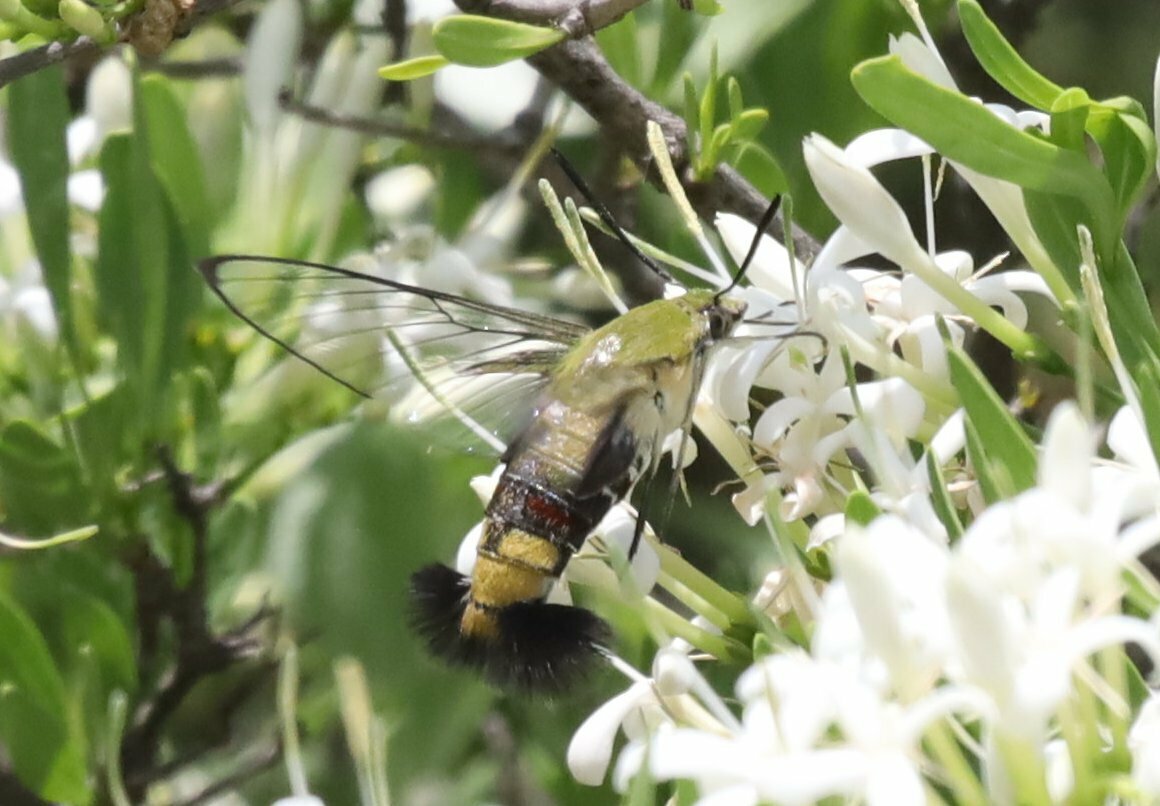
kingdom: Animalia
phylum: Arthropoda
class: Insecta
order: Lepidoptera
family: Sphingidae
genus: Cephonodes
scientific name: Cephonodes hylas
